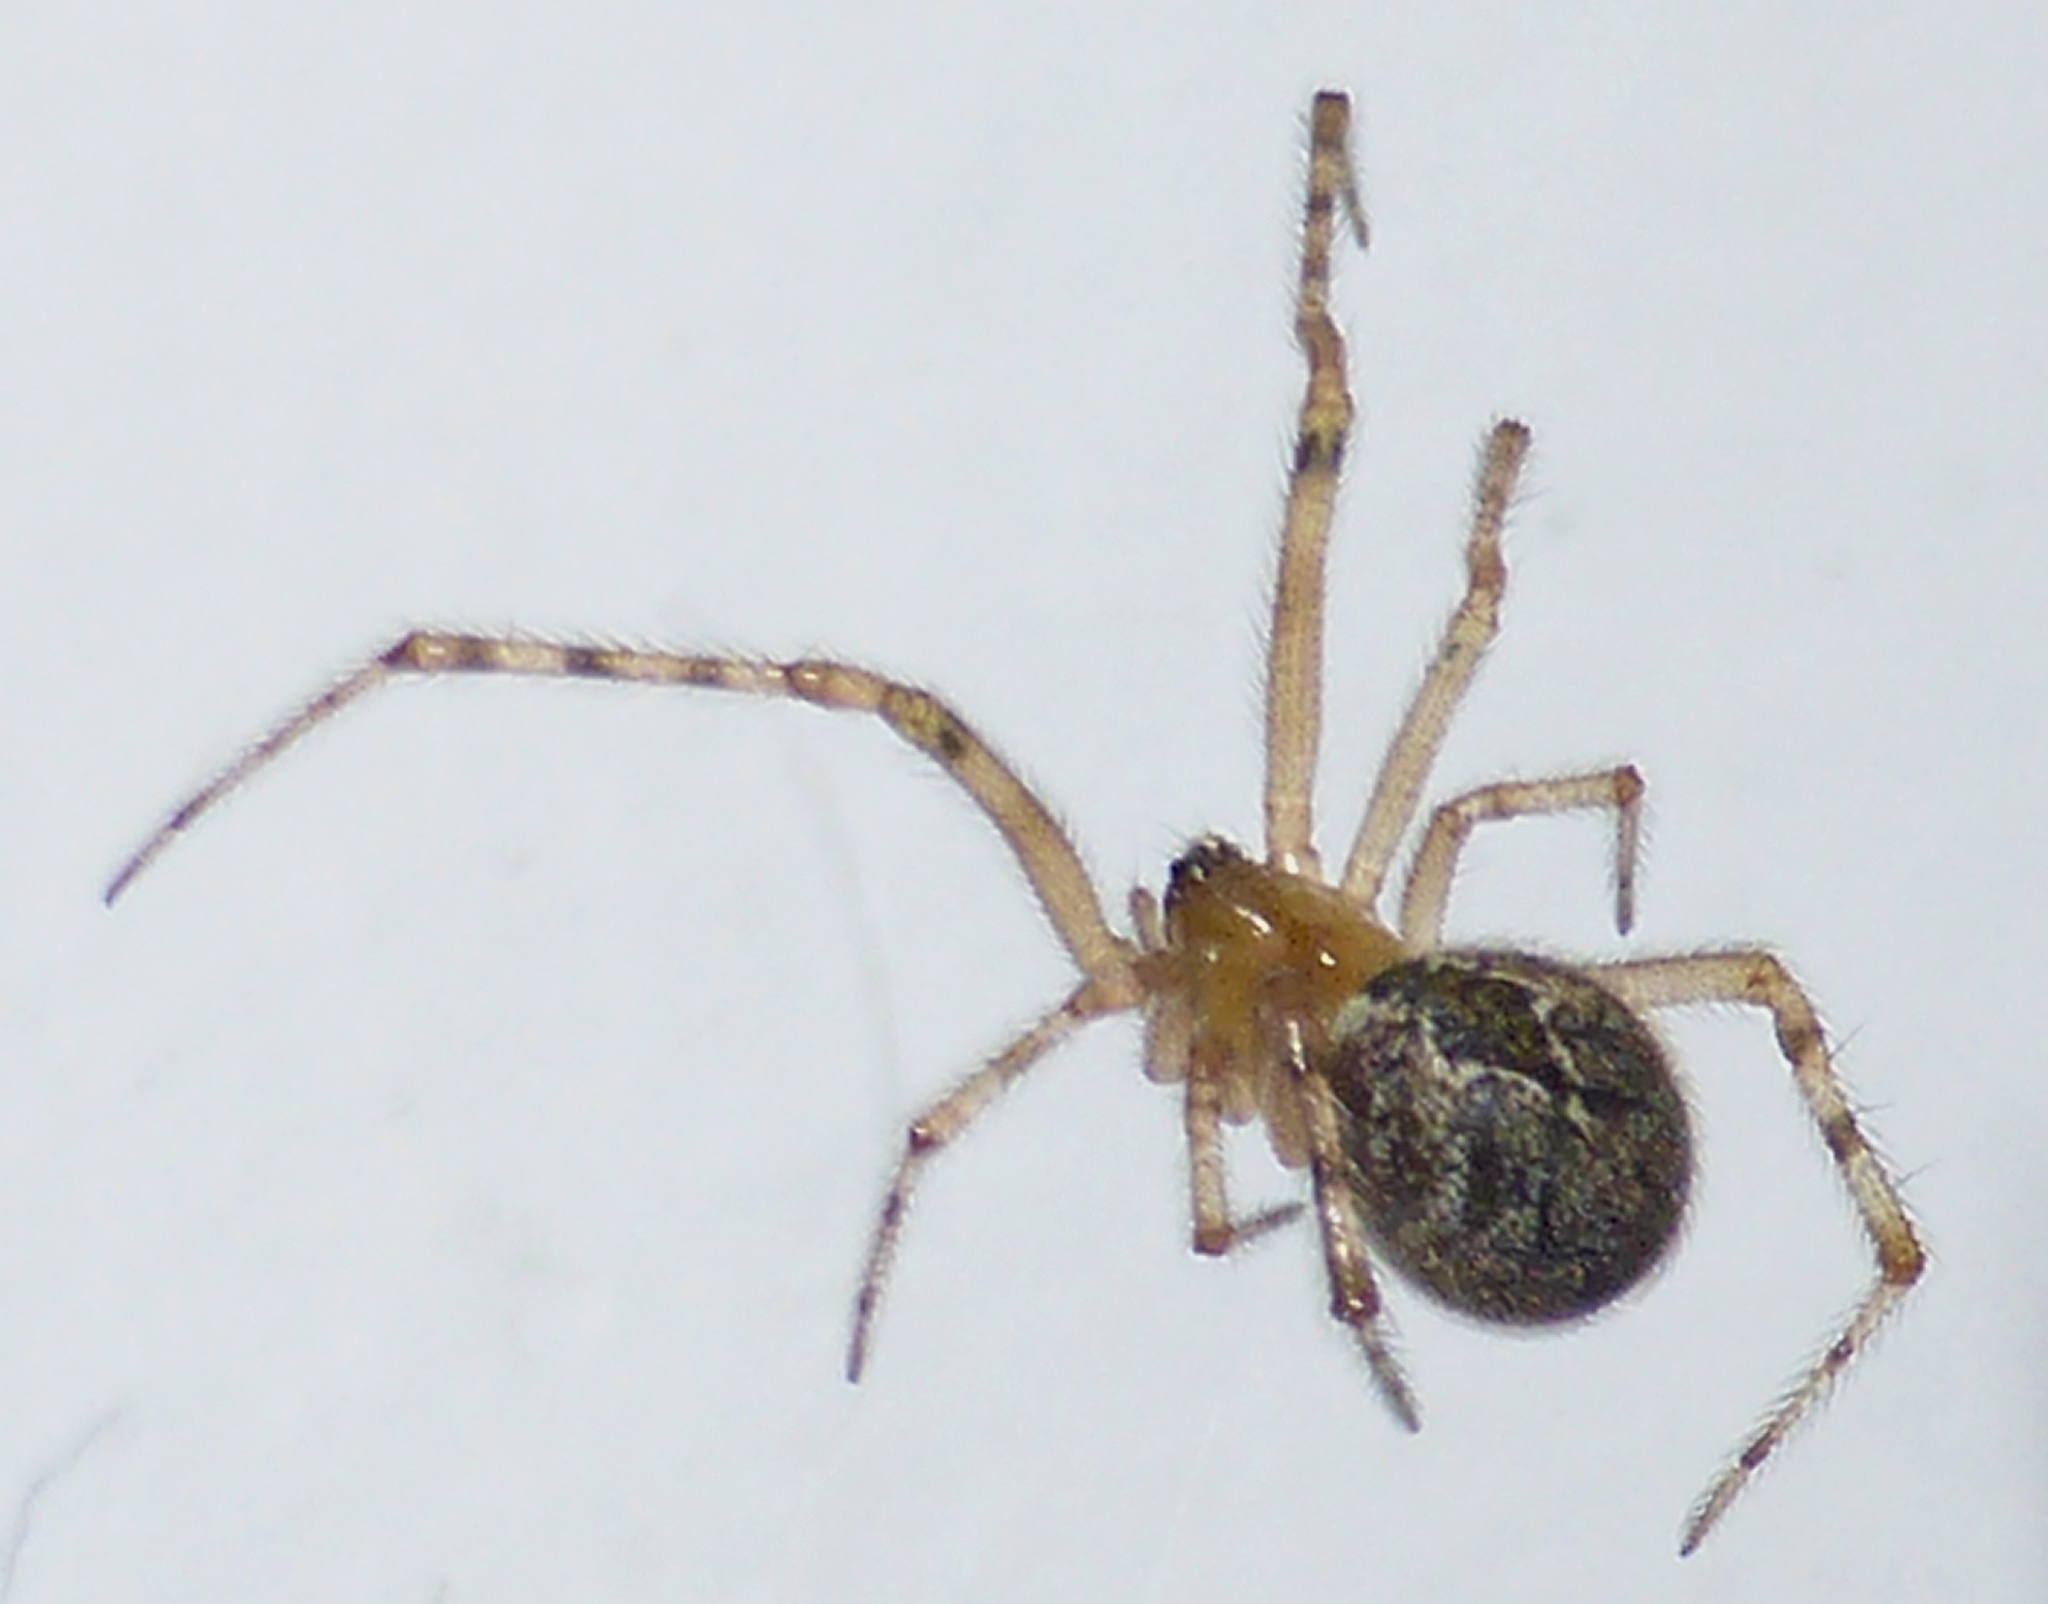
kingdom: Animalia
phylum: Arthropoda
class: Arachnida
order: Araneae
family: Theridiidae
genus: Cryptachaea
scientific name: Cryptachaea veruculata
